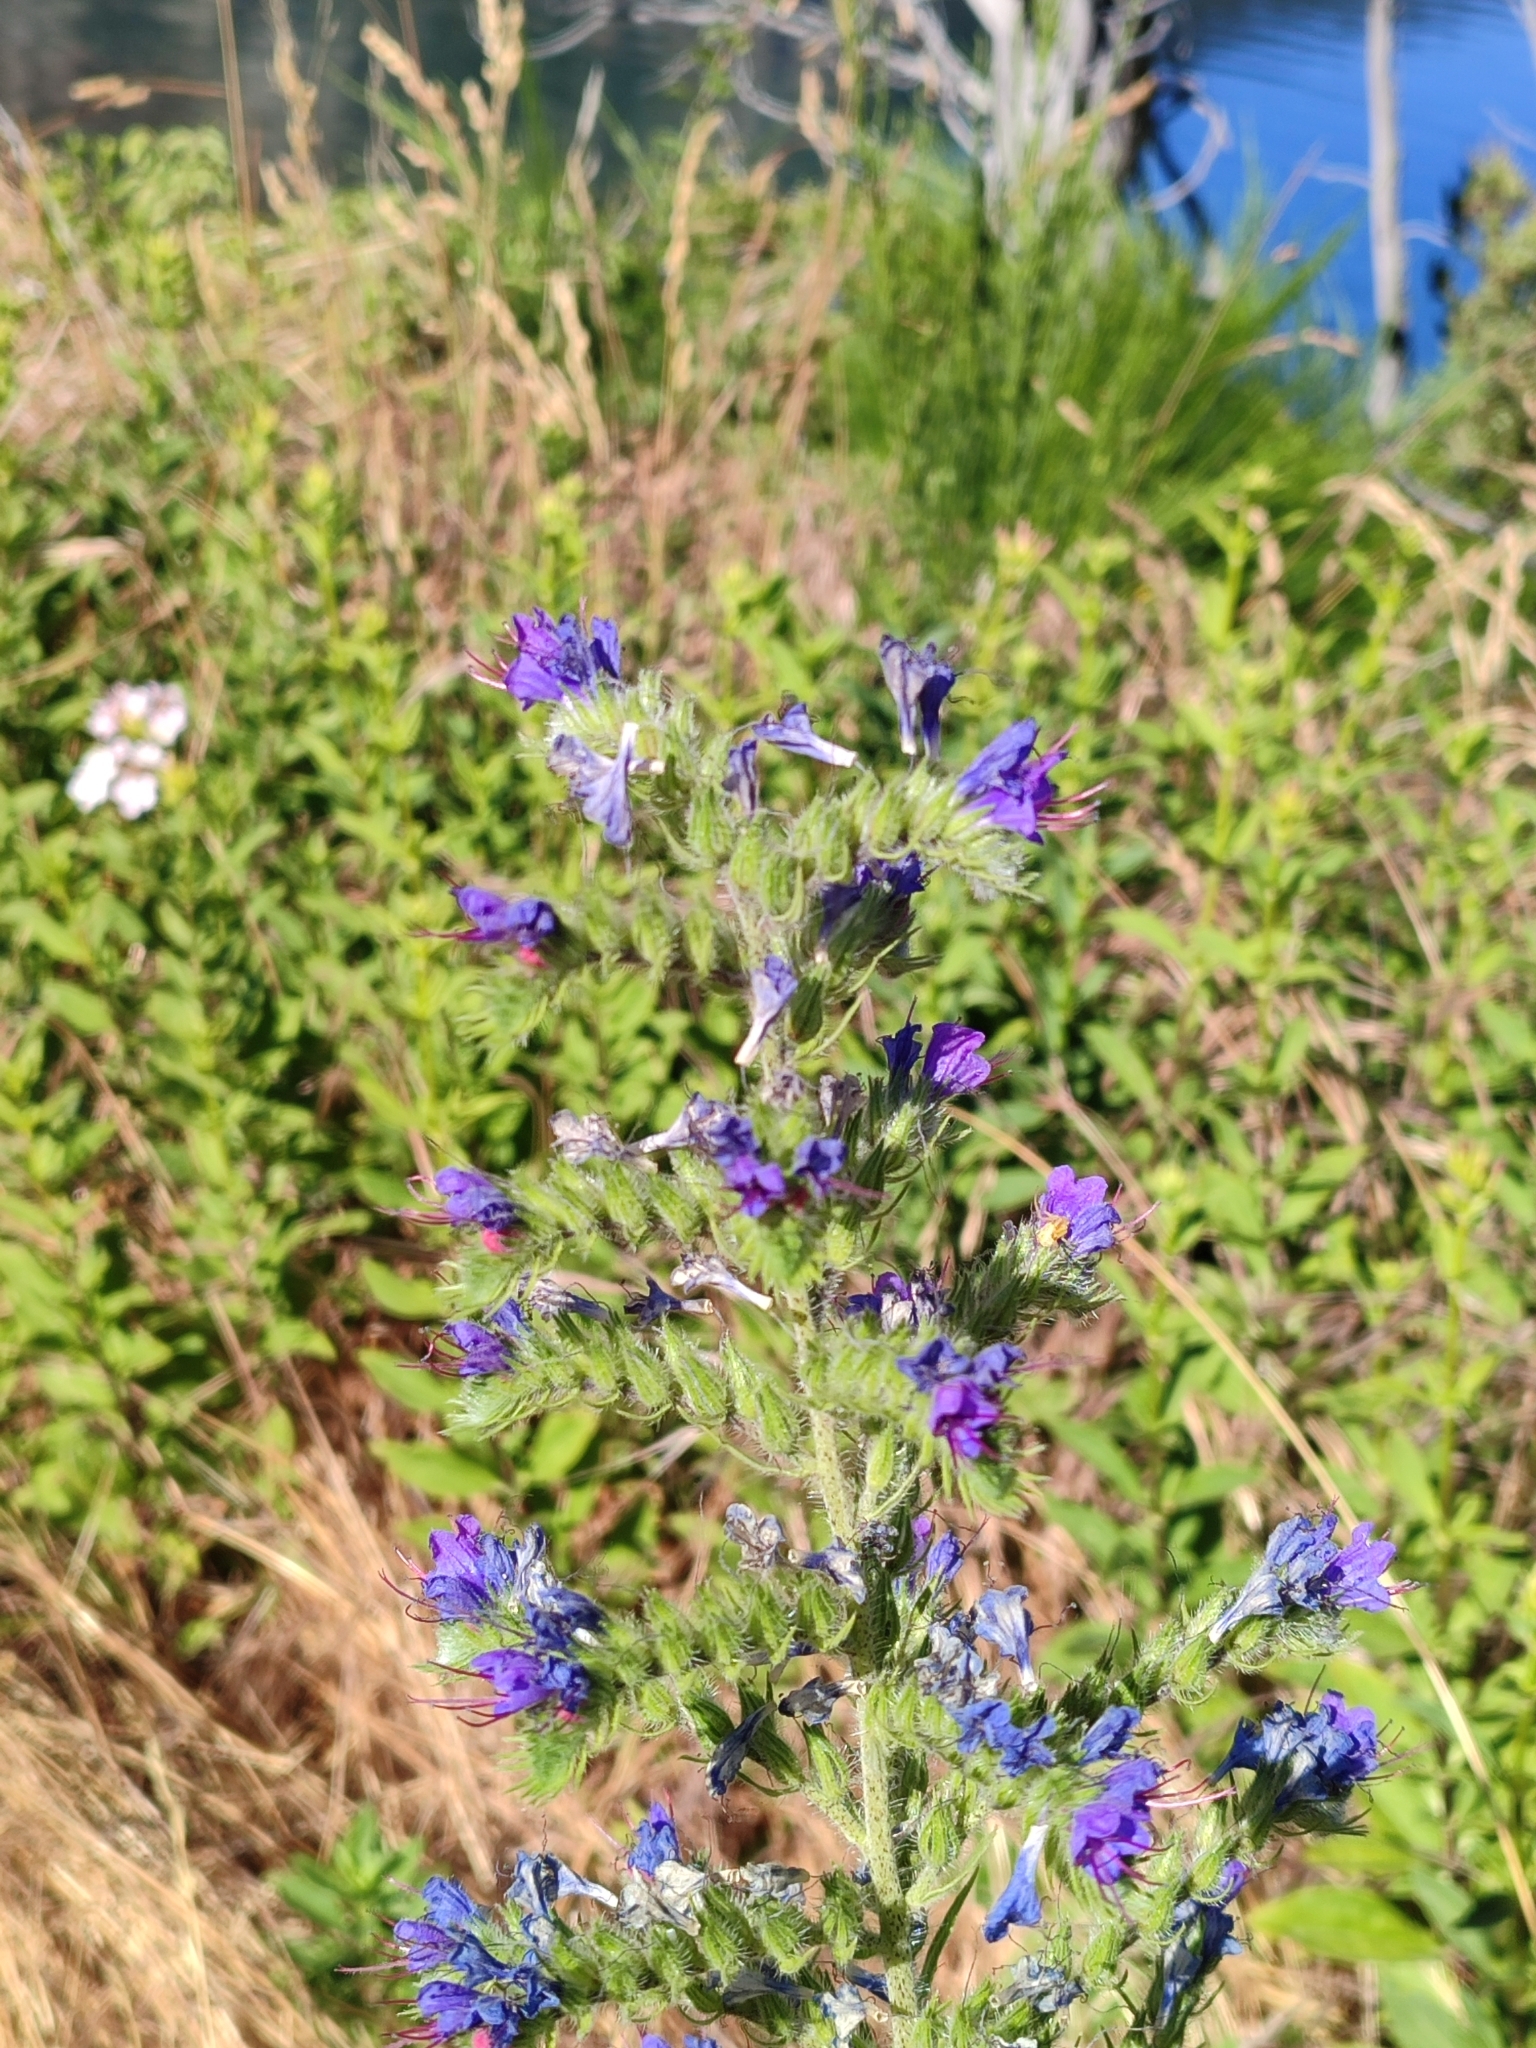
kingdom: Plantae
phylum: Tracheophyta
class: Magnoliopsida
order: Boraginales
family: Boraginaceae
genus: Echium
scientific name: Echium vulgare
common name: Common viper's bugloss
